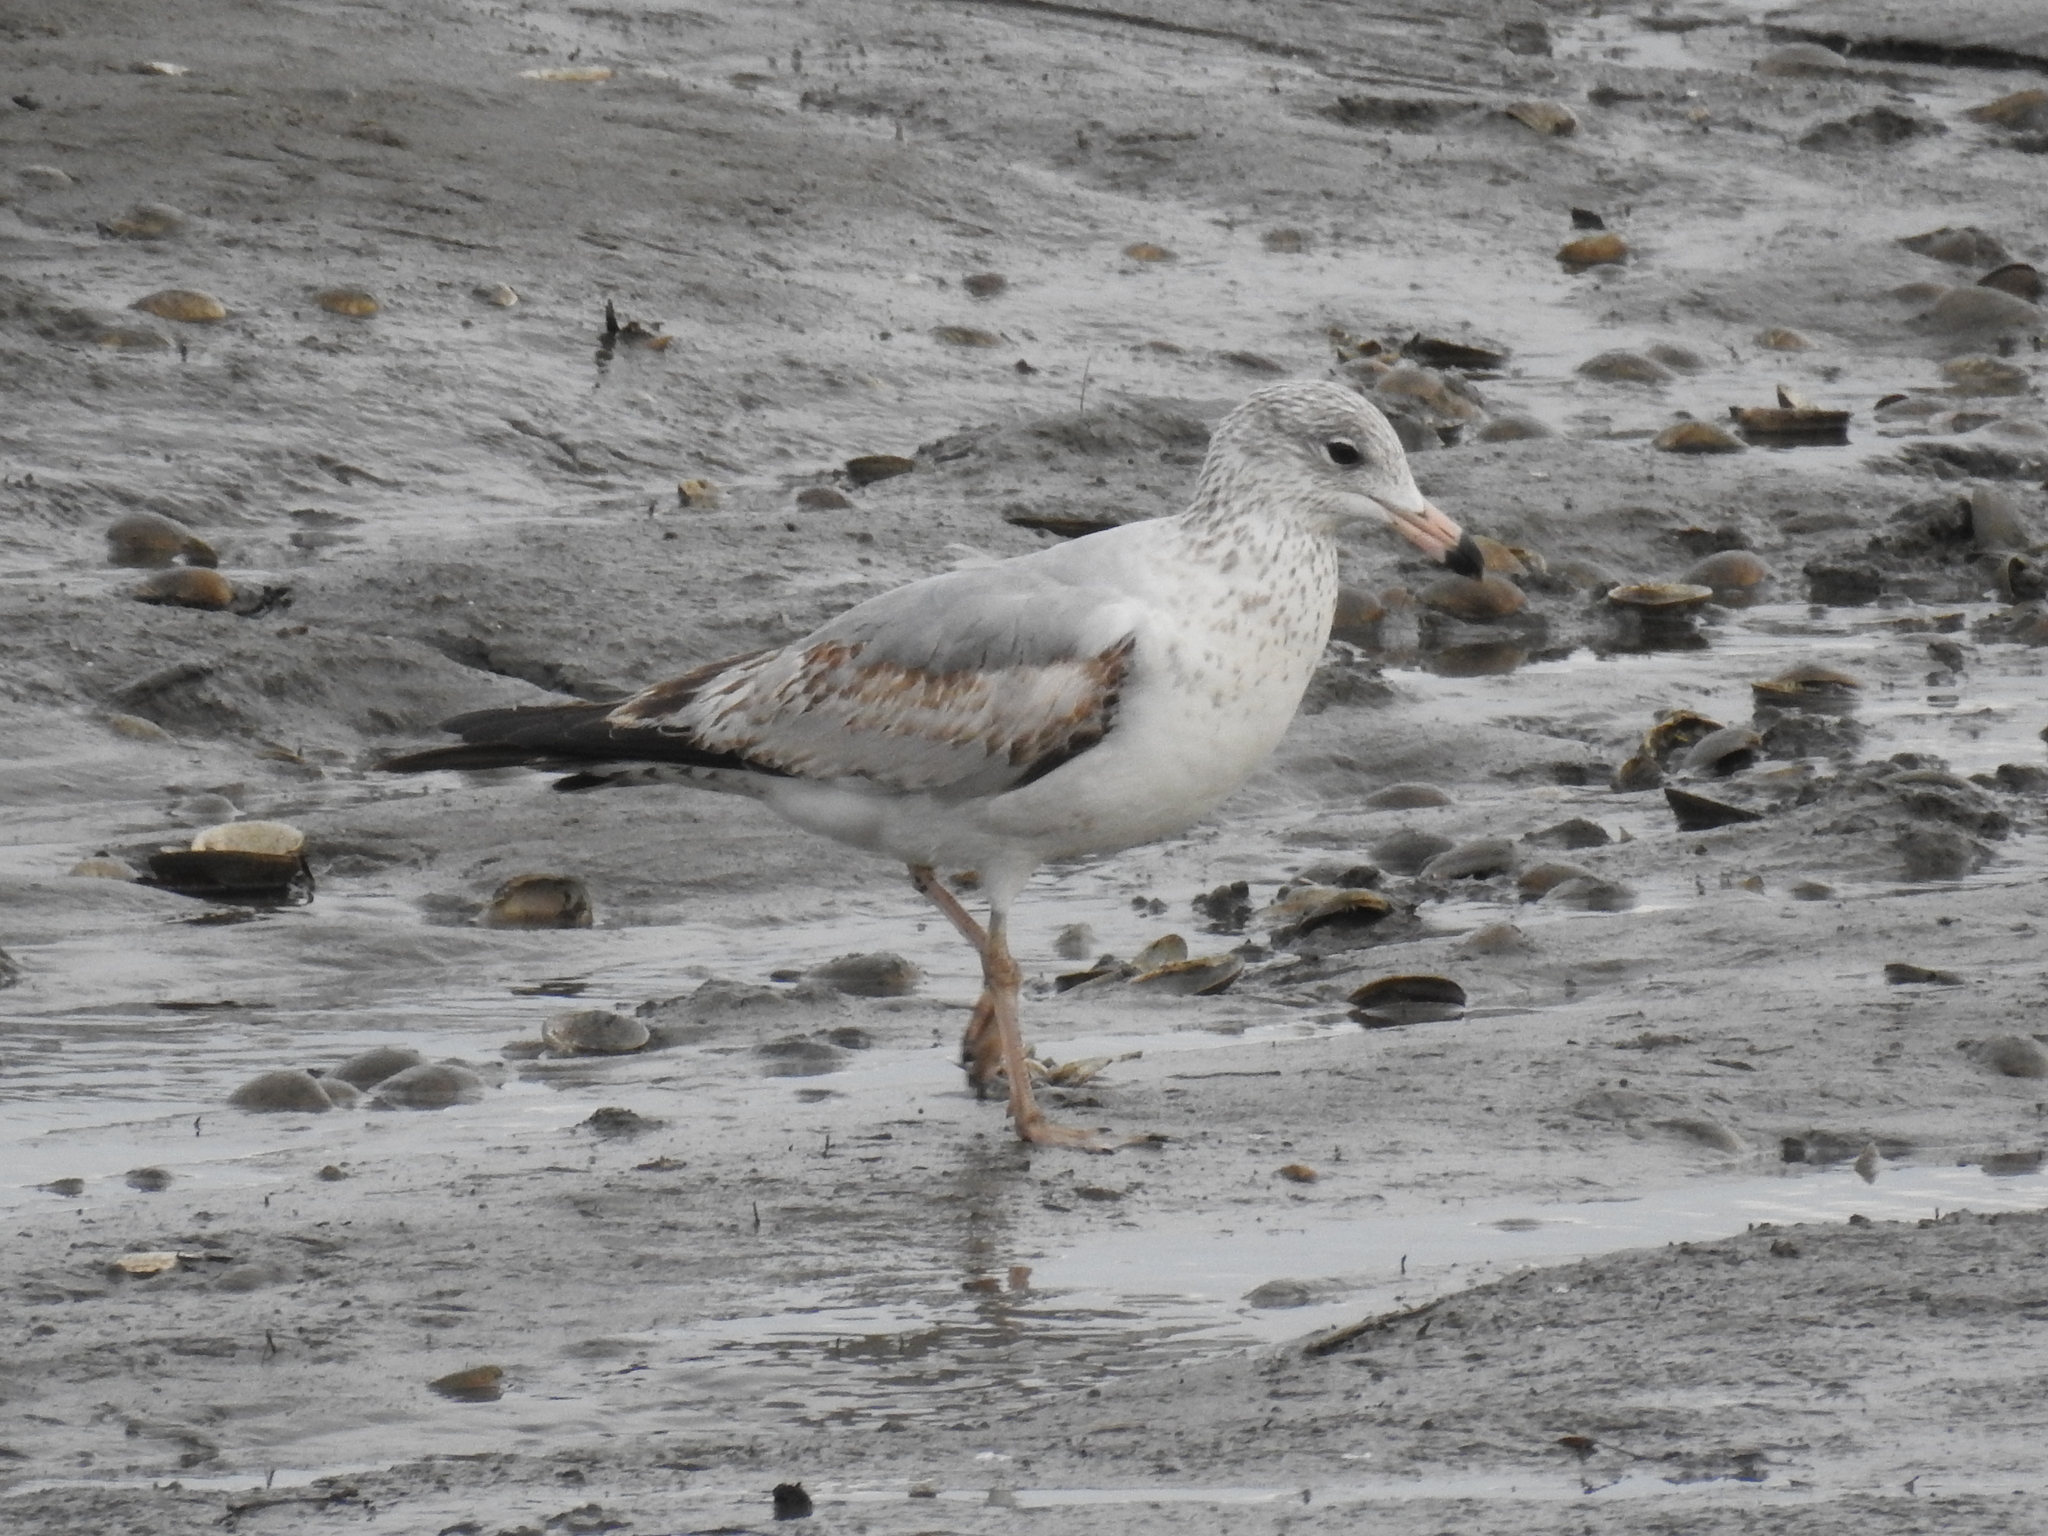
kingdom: Animalia
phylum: Chordata
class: Aves
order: Charadriiformes
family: Laridae
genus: Larus
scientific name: Larus delawarensis
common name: Ring-billed gull
